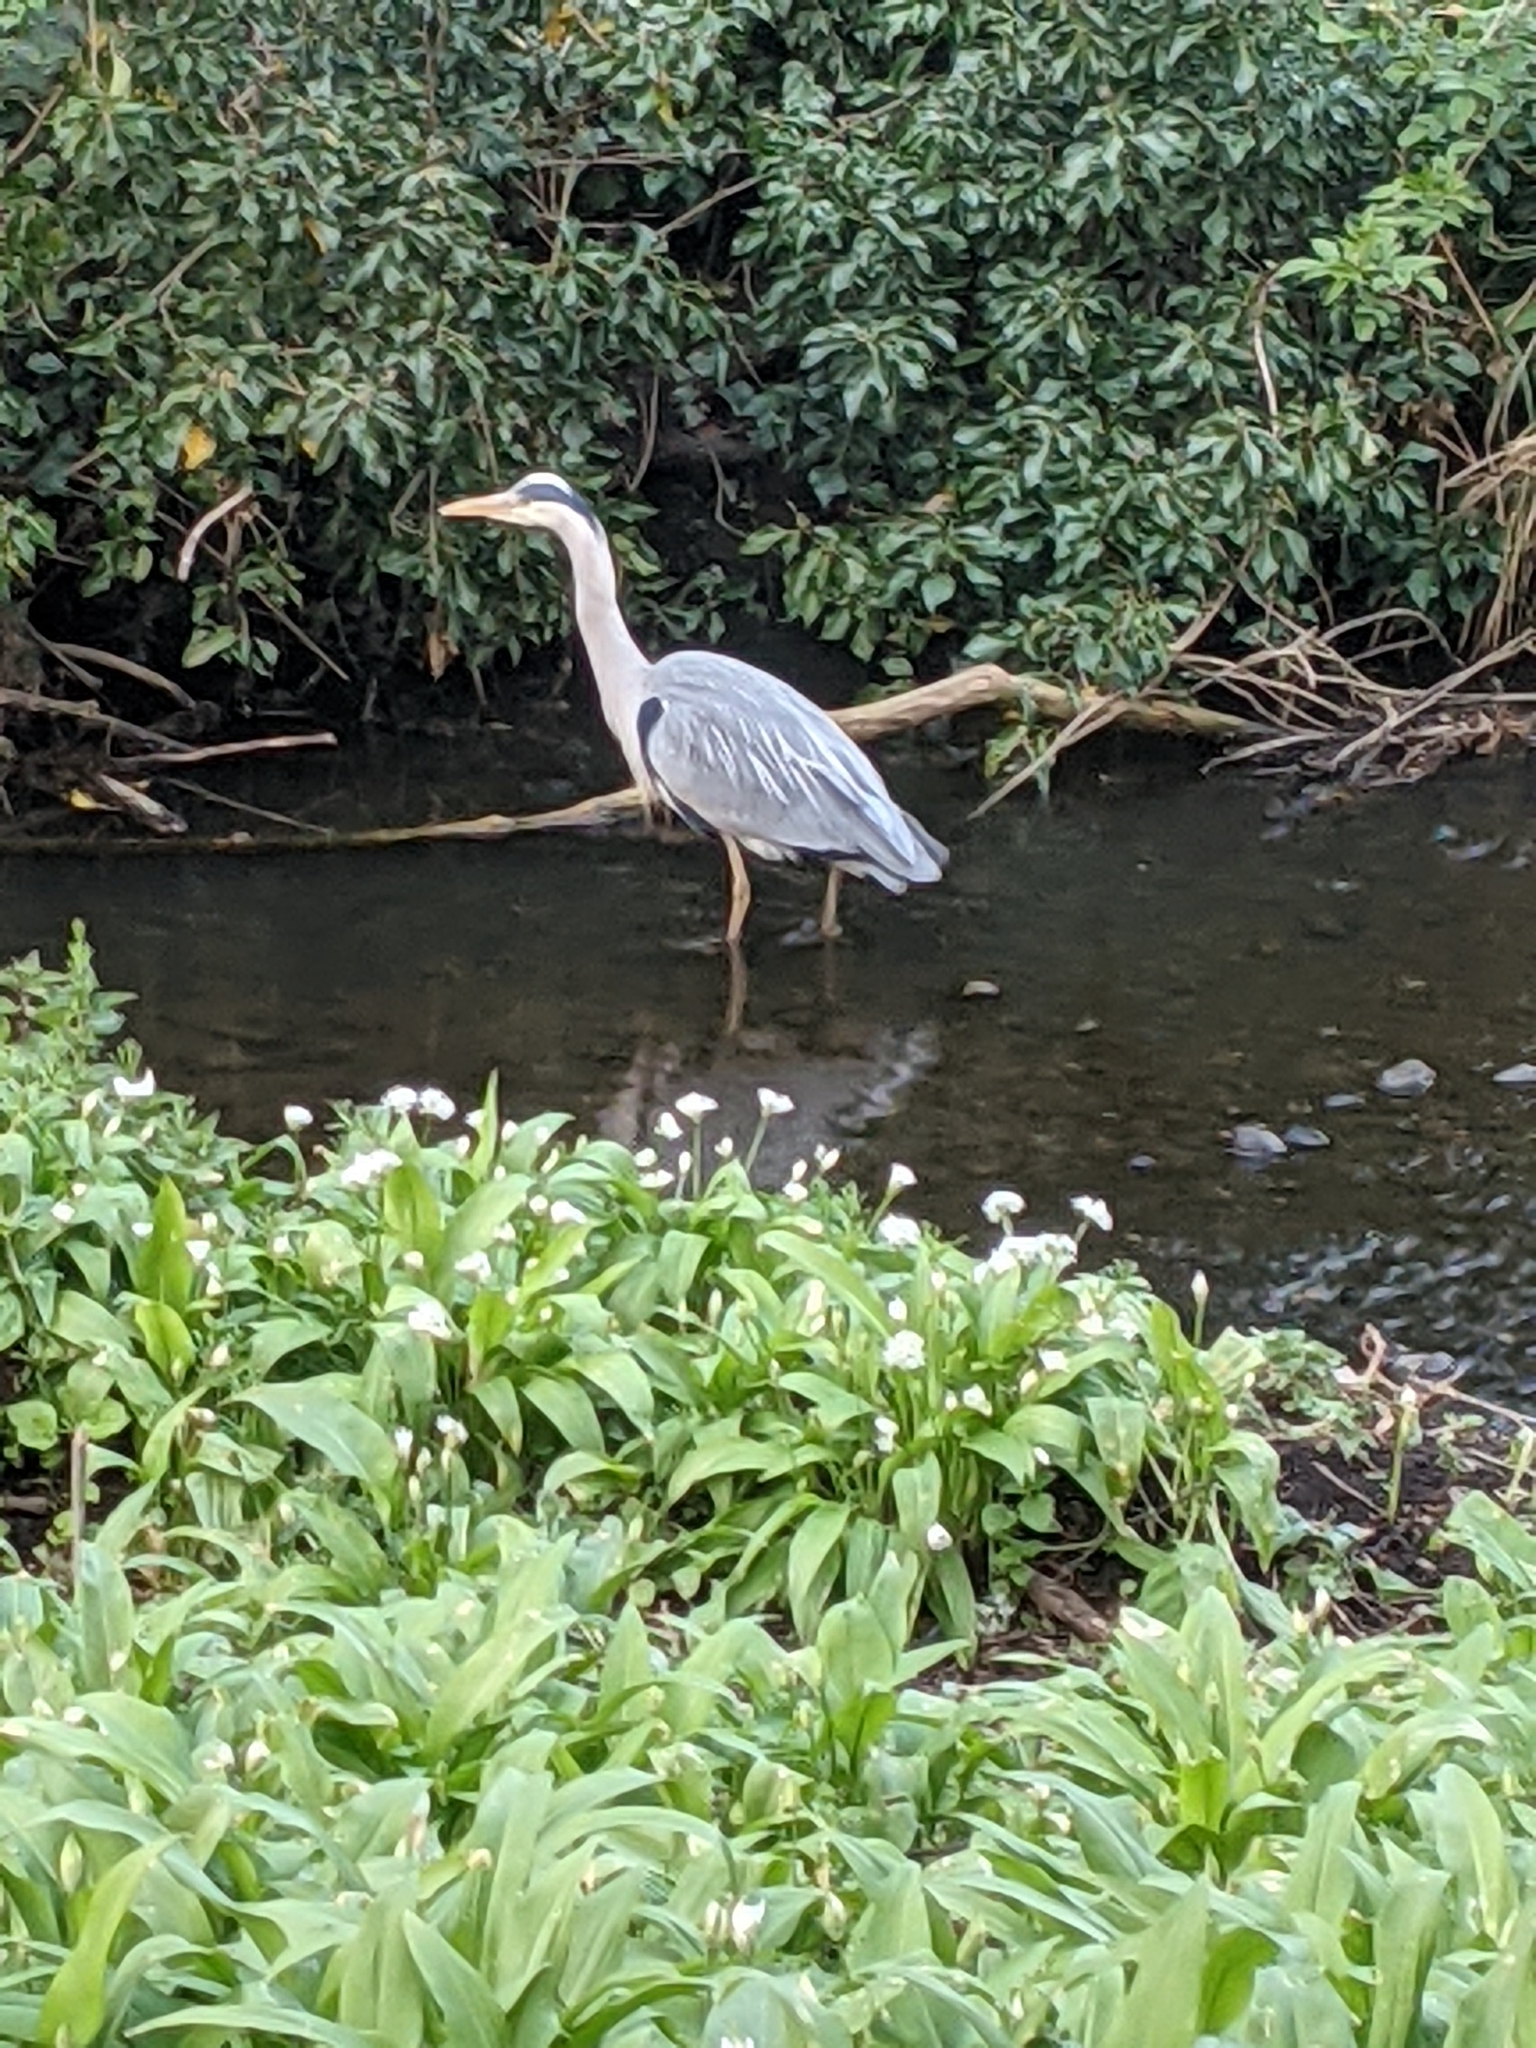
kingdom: Animalia
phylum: Chordata
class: Aves
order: Pelecaniformes
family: Ardeidae
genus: Ardea
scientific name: Ardea cinerea
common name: Grey heron
